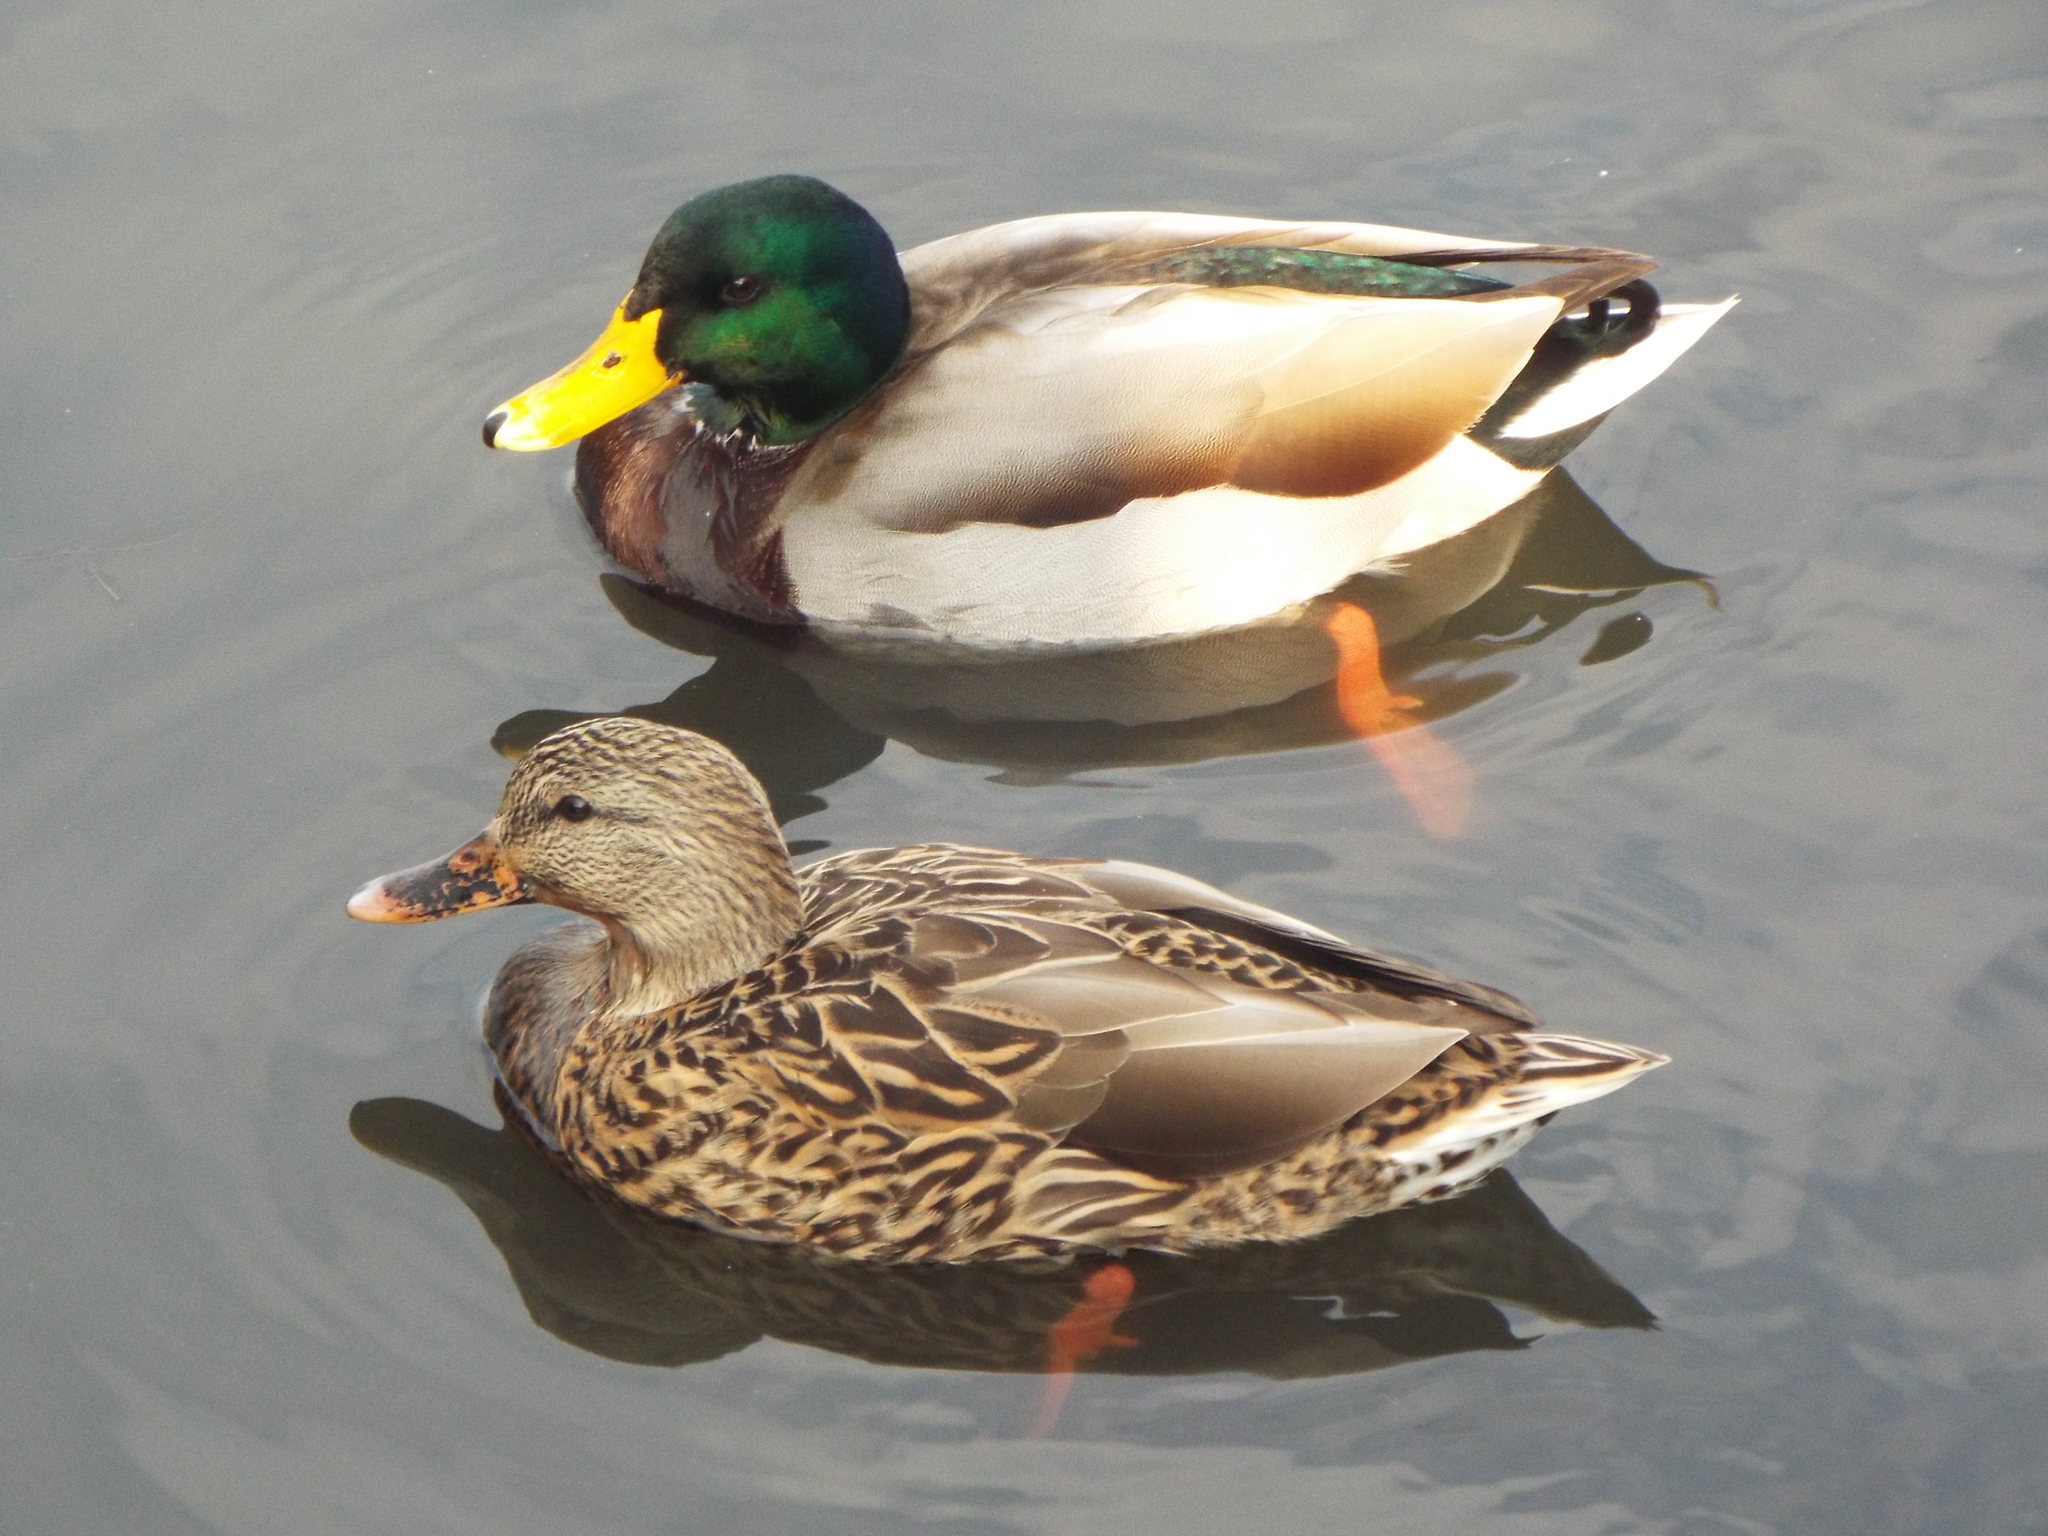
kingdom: Animalia
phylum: Chordata
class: Aves
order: Anseriformes
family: Anatidae
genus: Anas
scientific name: Anas platyrhynchos
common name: Mallard
